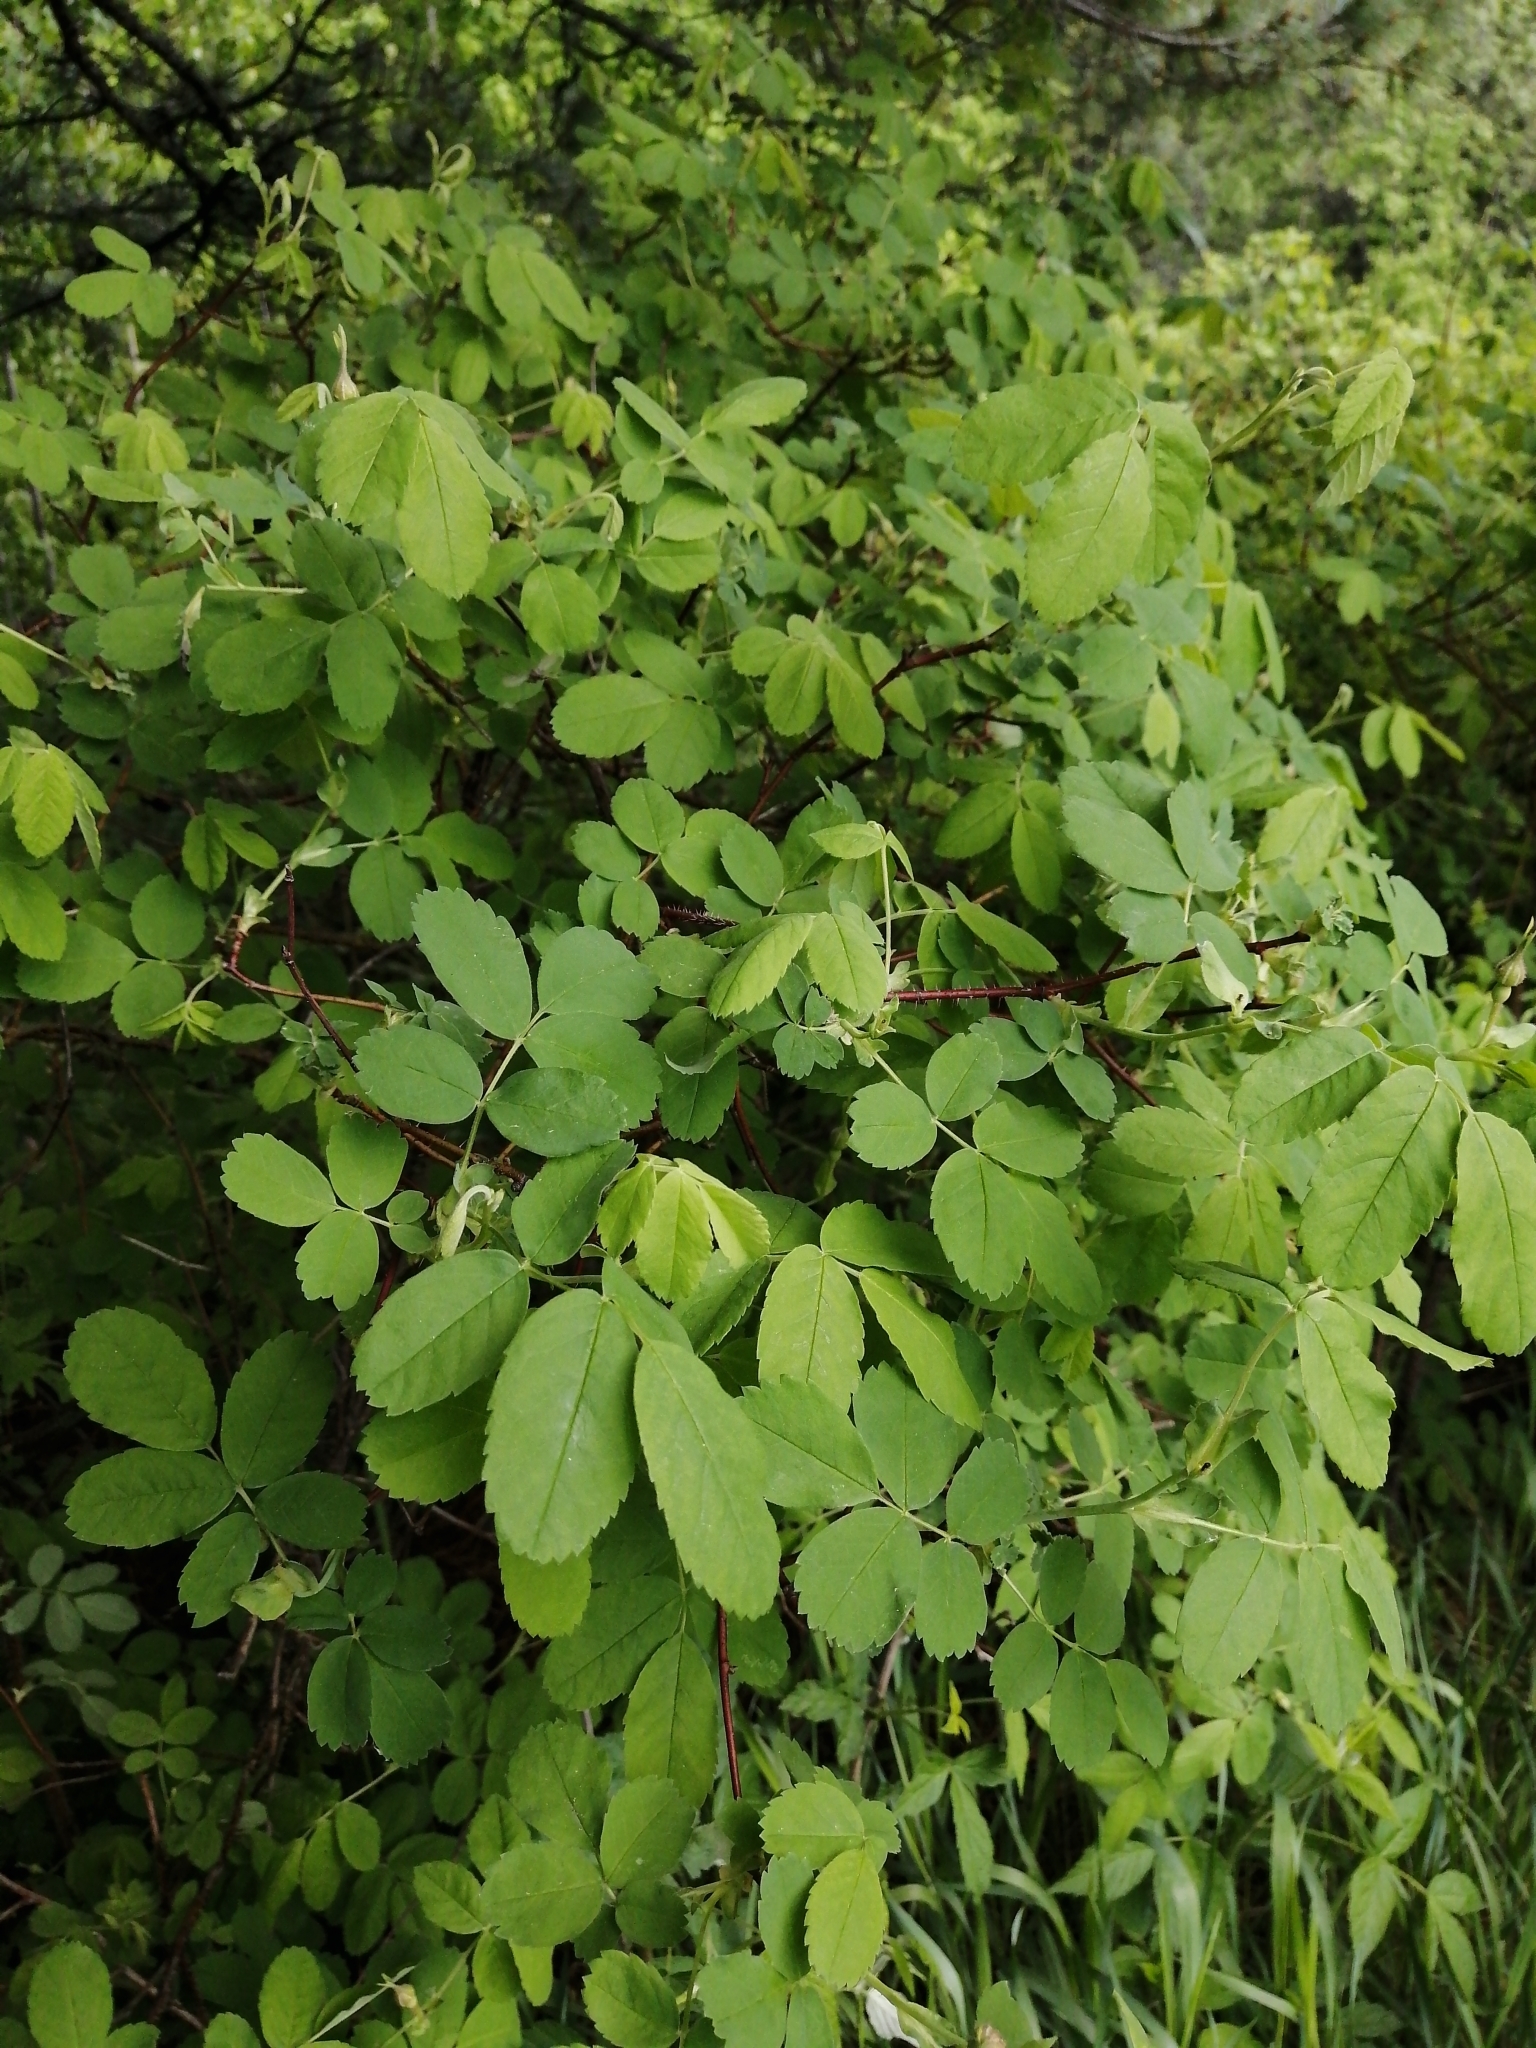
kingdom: Plantae
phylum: Tracheophyta
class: Magnoliopsida
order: Rosales
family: Rosaceae
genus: Rosa
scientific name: Rosa acicularis
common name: Prickly rose
